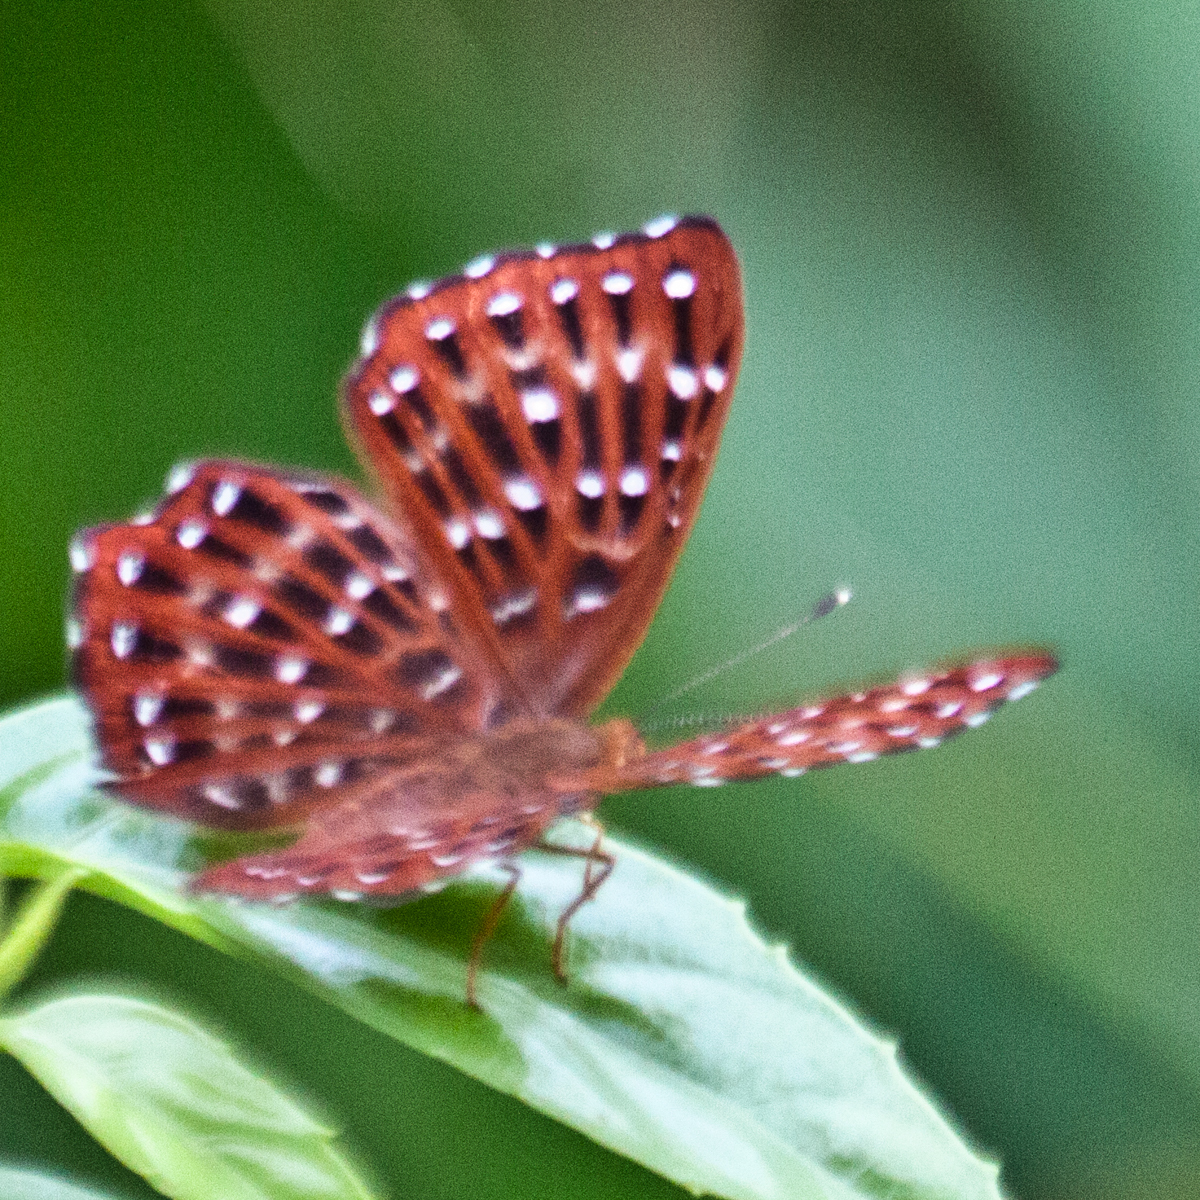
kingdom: Animalia
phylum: Arthropoda
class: Insecta
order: Lepidoptera
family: Riodinidae
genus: Zemeros
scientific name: Zemeros flegyas
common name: Punchinello
